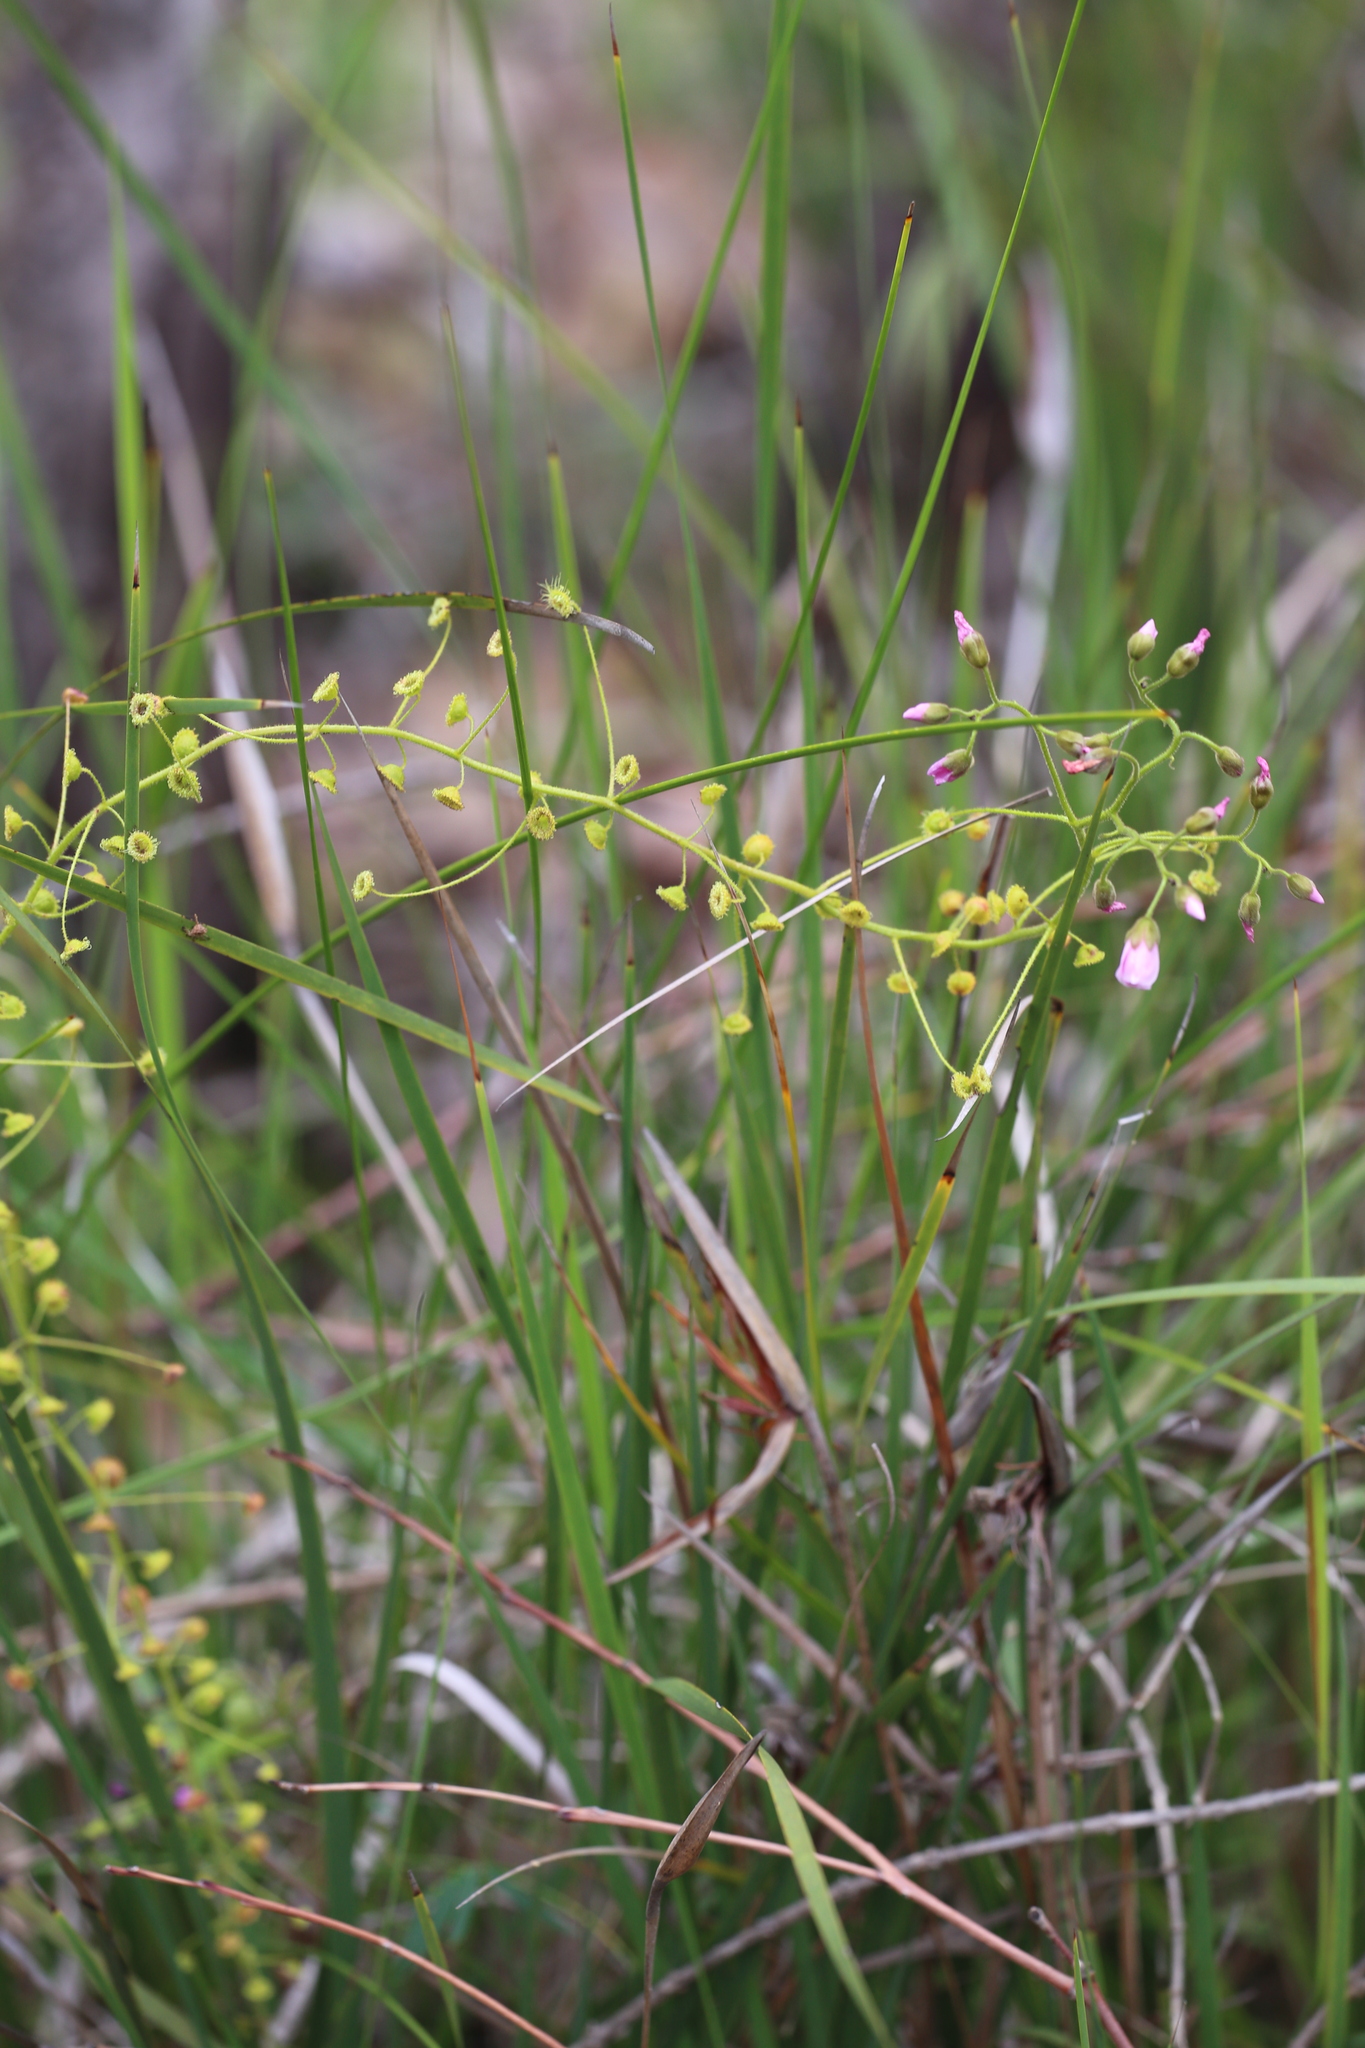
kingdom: Plantae
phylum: Tracheophyta
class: Magnoliopsida
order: Caryophyllales
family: Droseraceae
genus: Drosera
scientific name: Drosera indumenta
